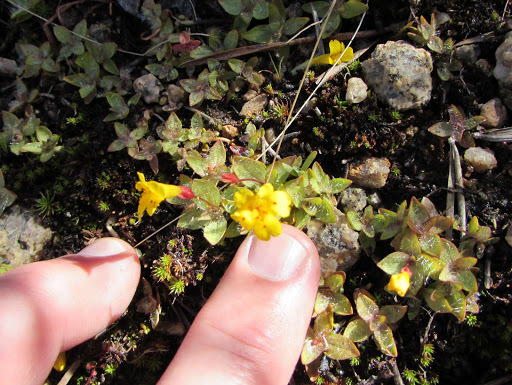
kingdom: Plantae
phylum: Tracheophyta
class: Magnoliopsida
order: Lamiales
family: Phrymaceae
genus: Erythranthe
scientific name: Erythranthe primuloides
